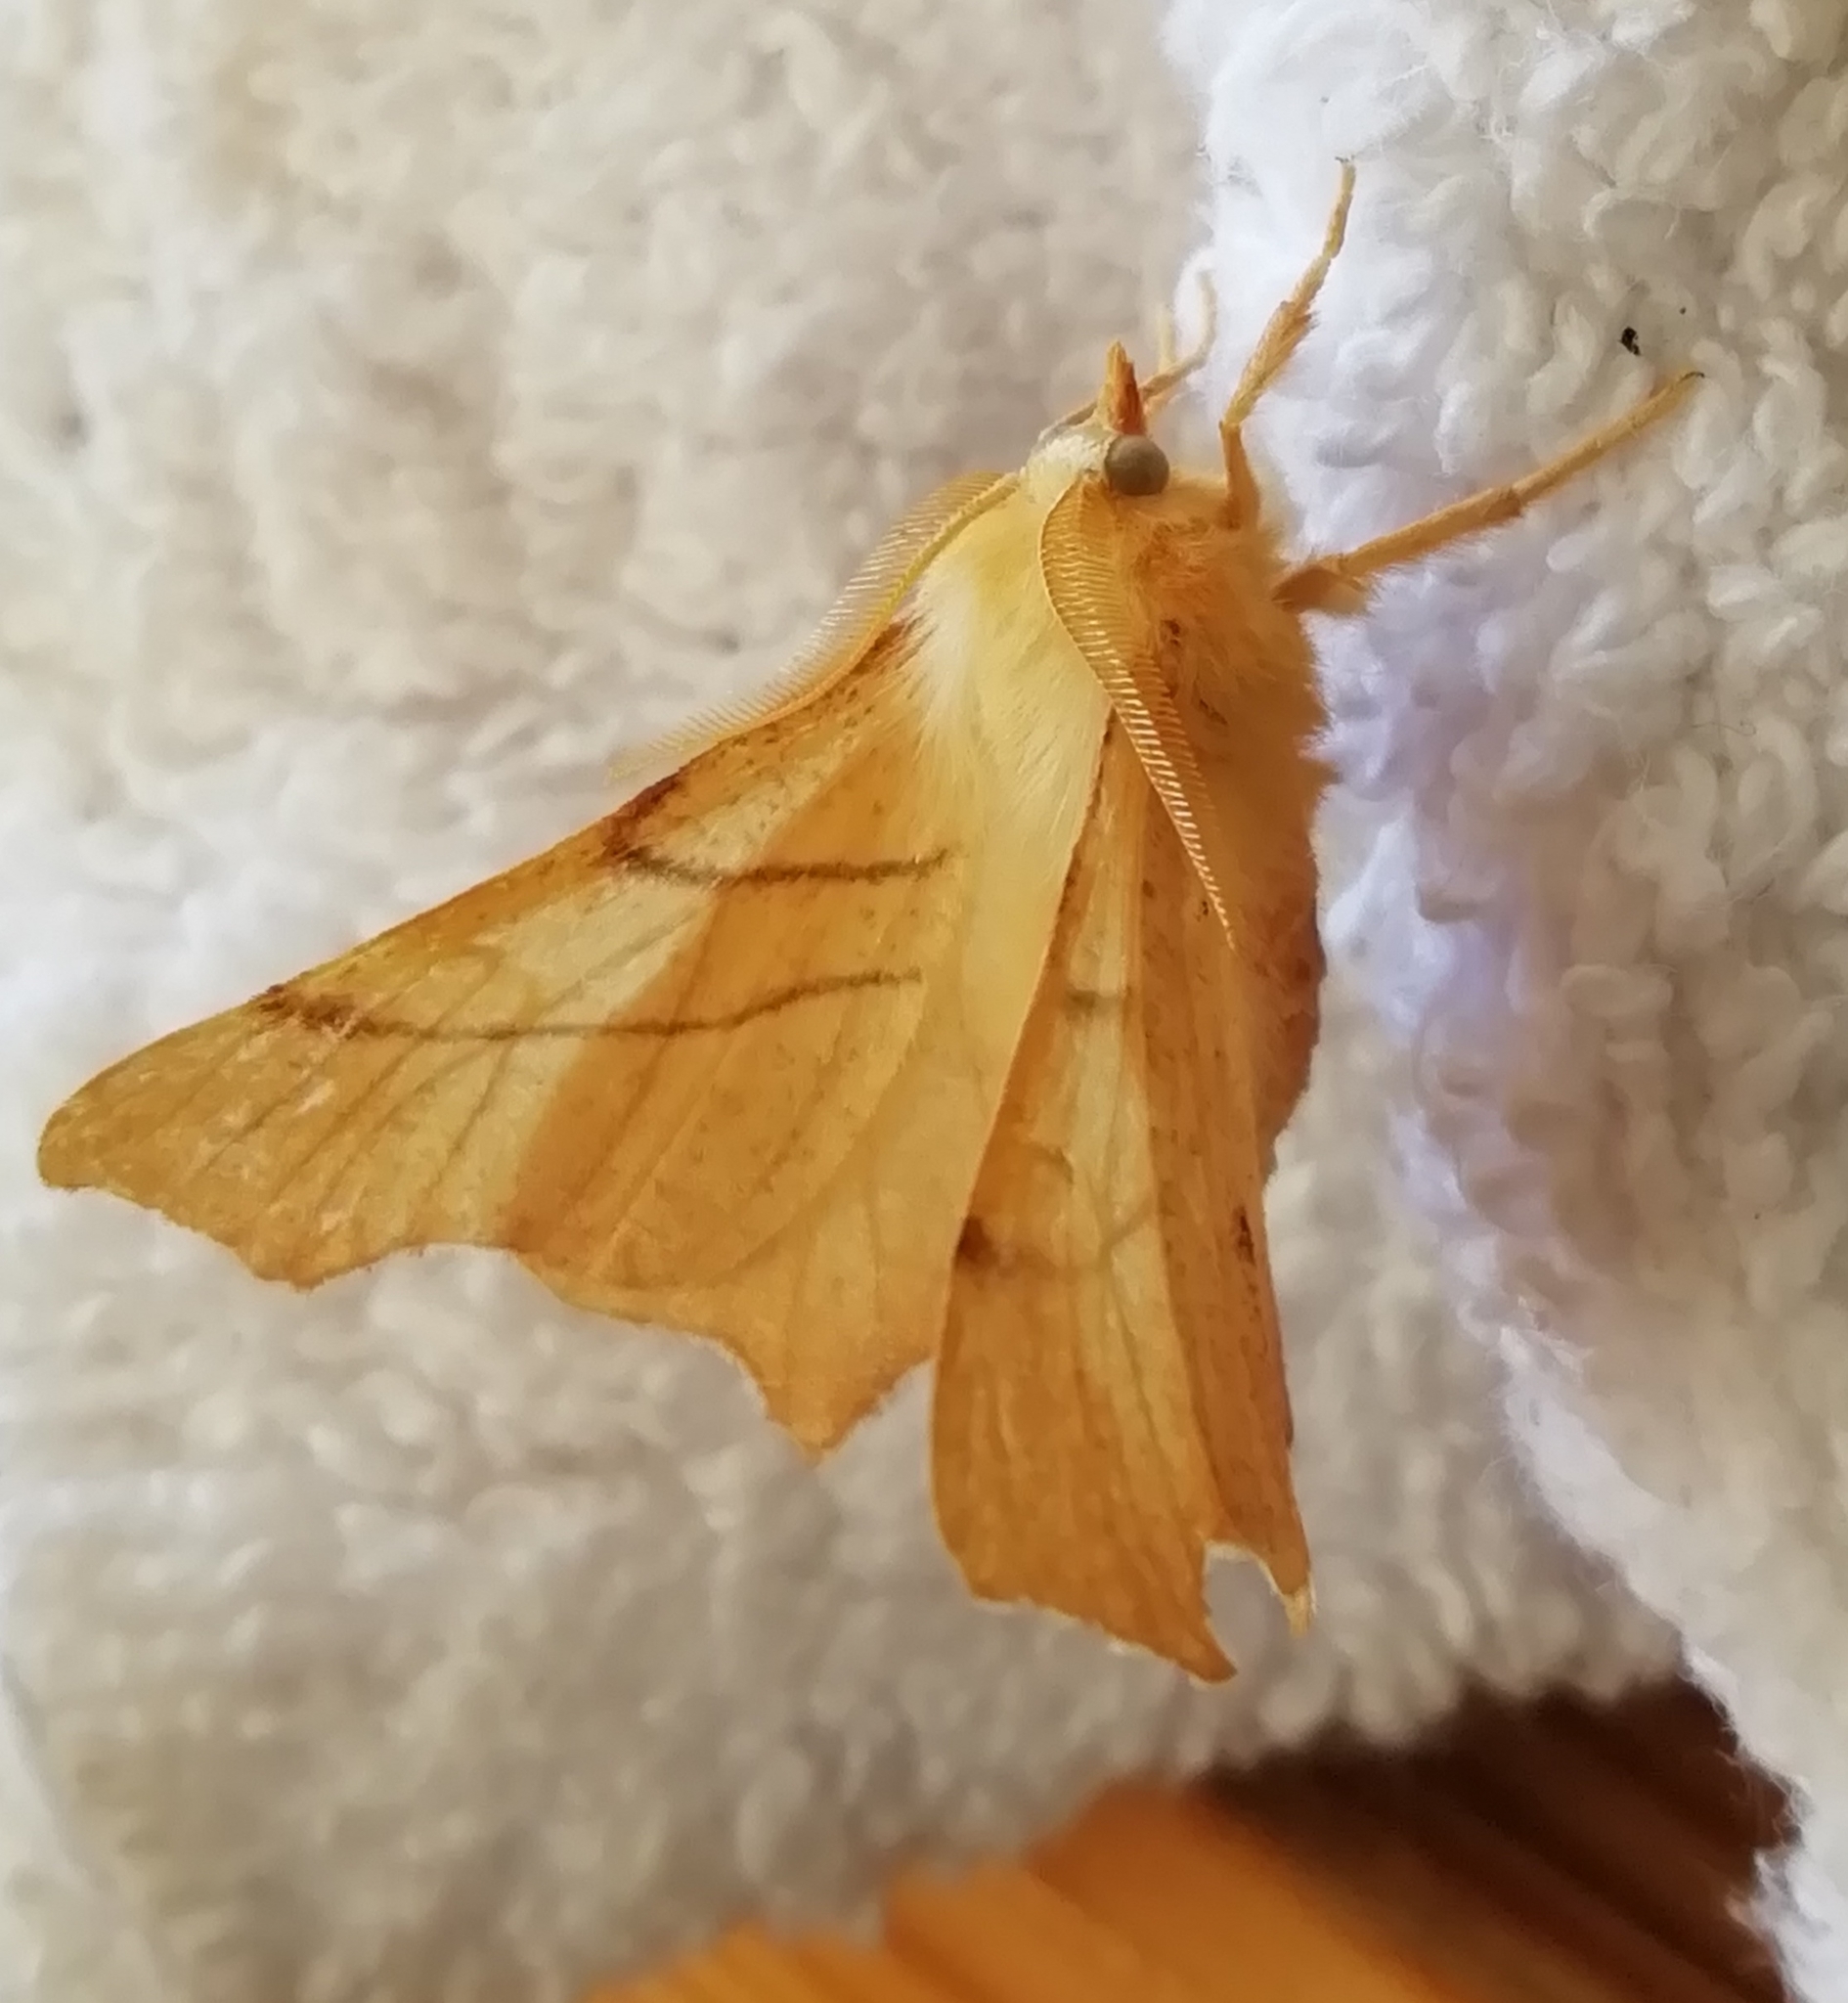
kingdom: Animalia
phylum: Arthropoda
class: Insecta
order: Lepidoptera
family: Geometridae
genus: Ennomos
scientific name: Ennomos erosaria
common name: September thorn
